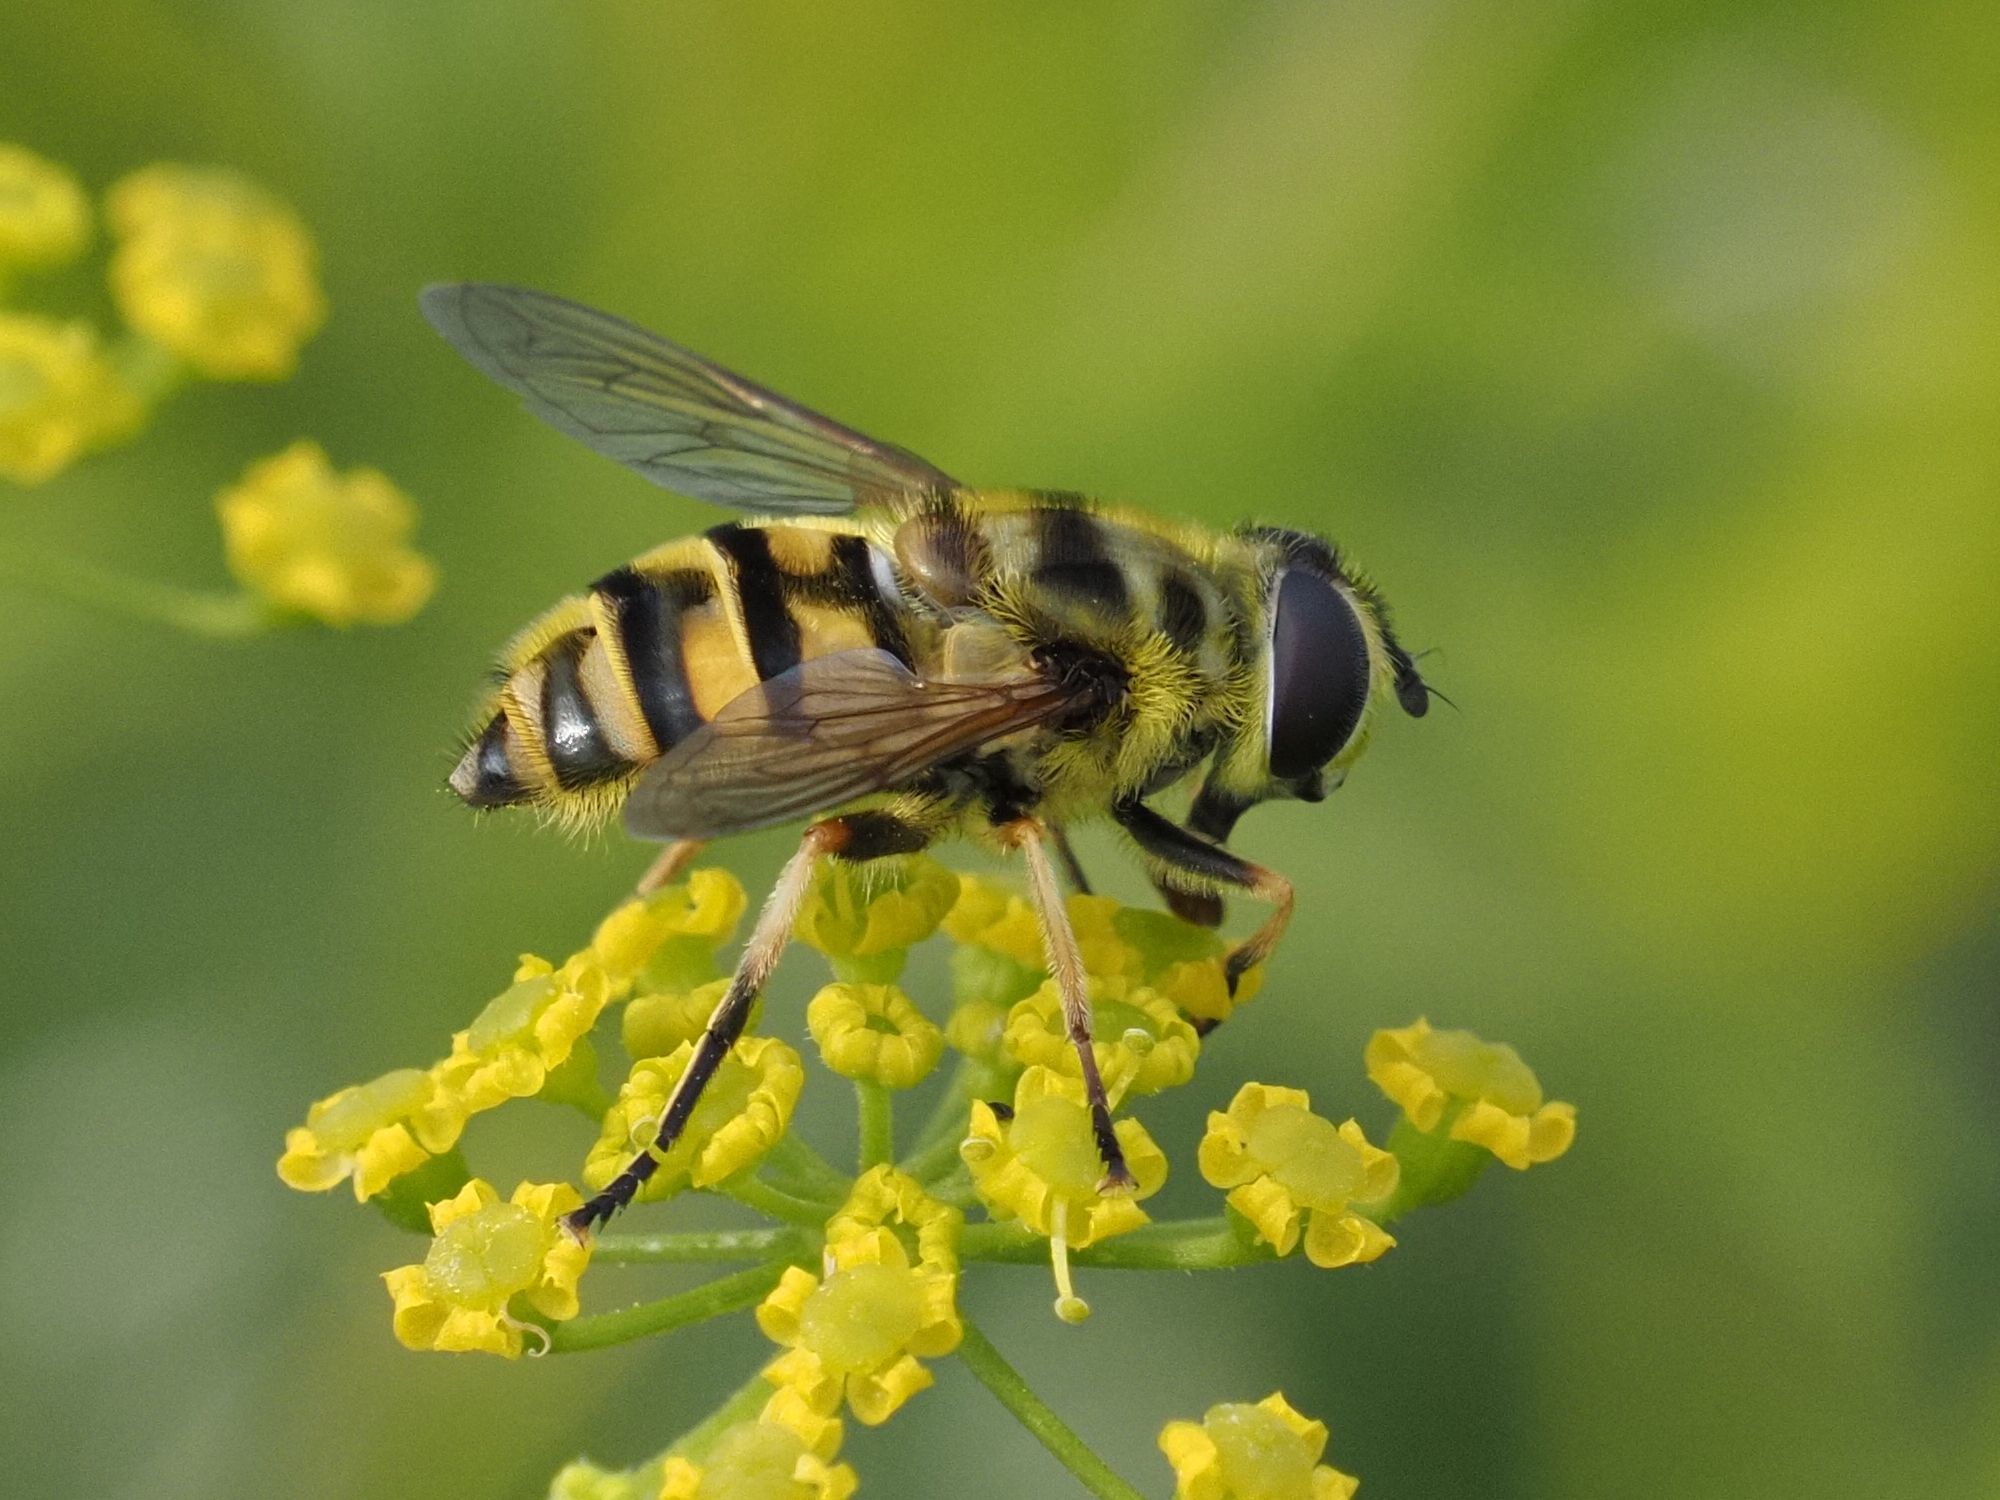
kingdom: Animalia
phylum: Arthropoda
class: Insecta
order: Diptera
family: Syrphidae
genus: Myathropa
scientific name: Myathropa florea
